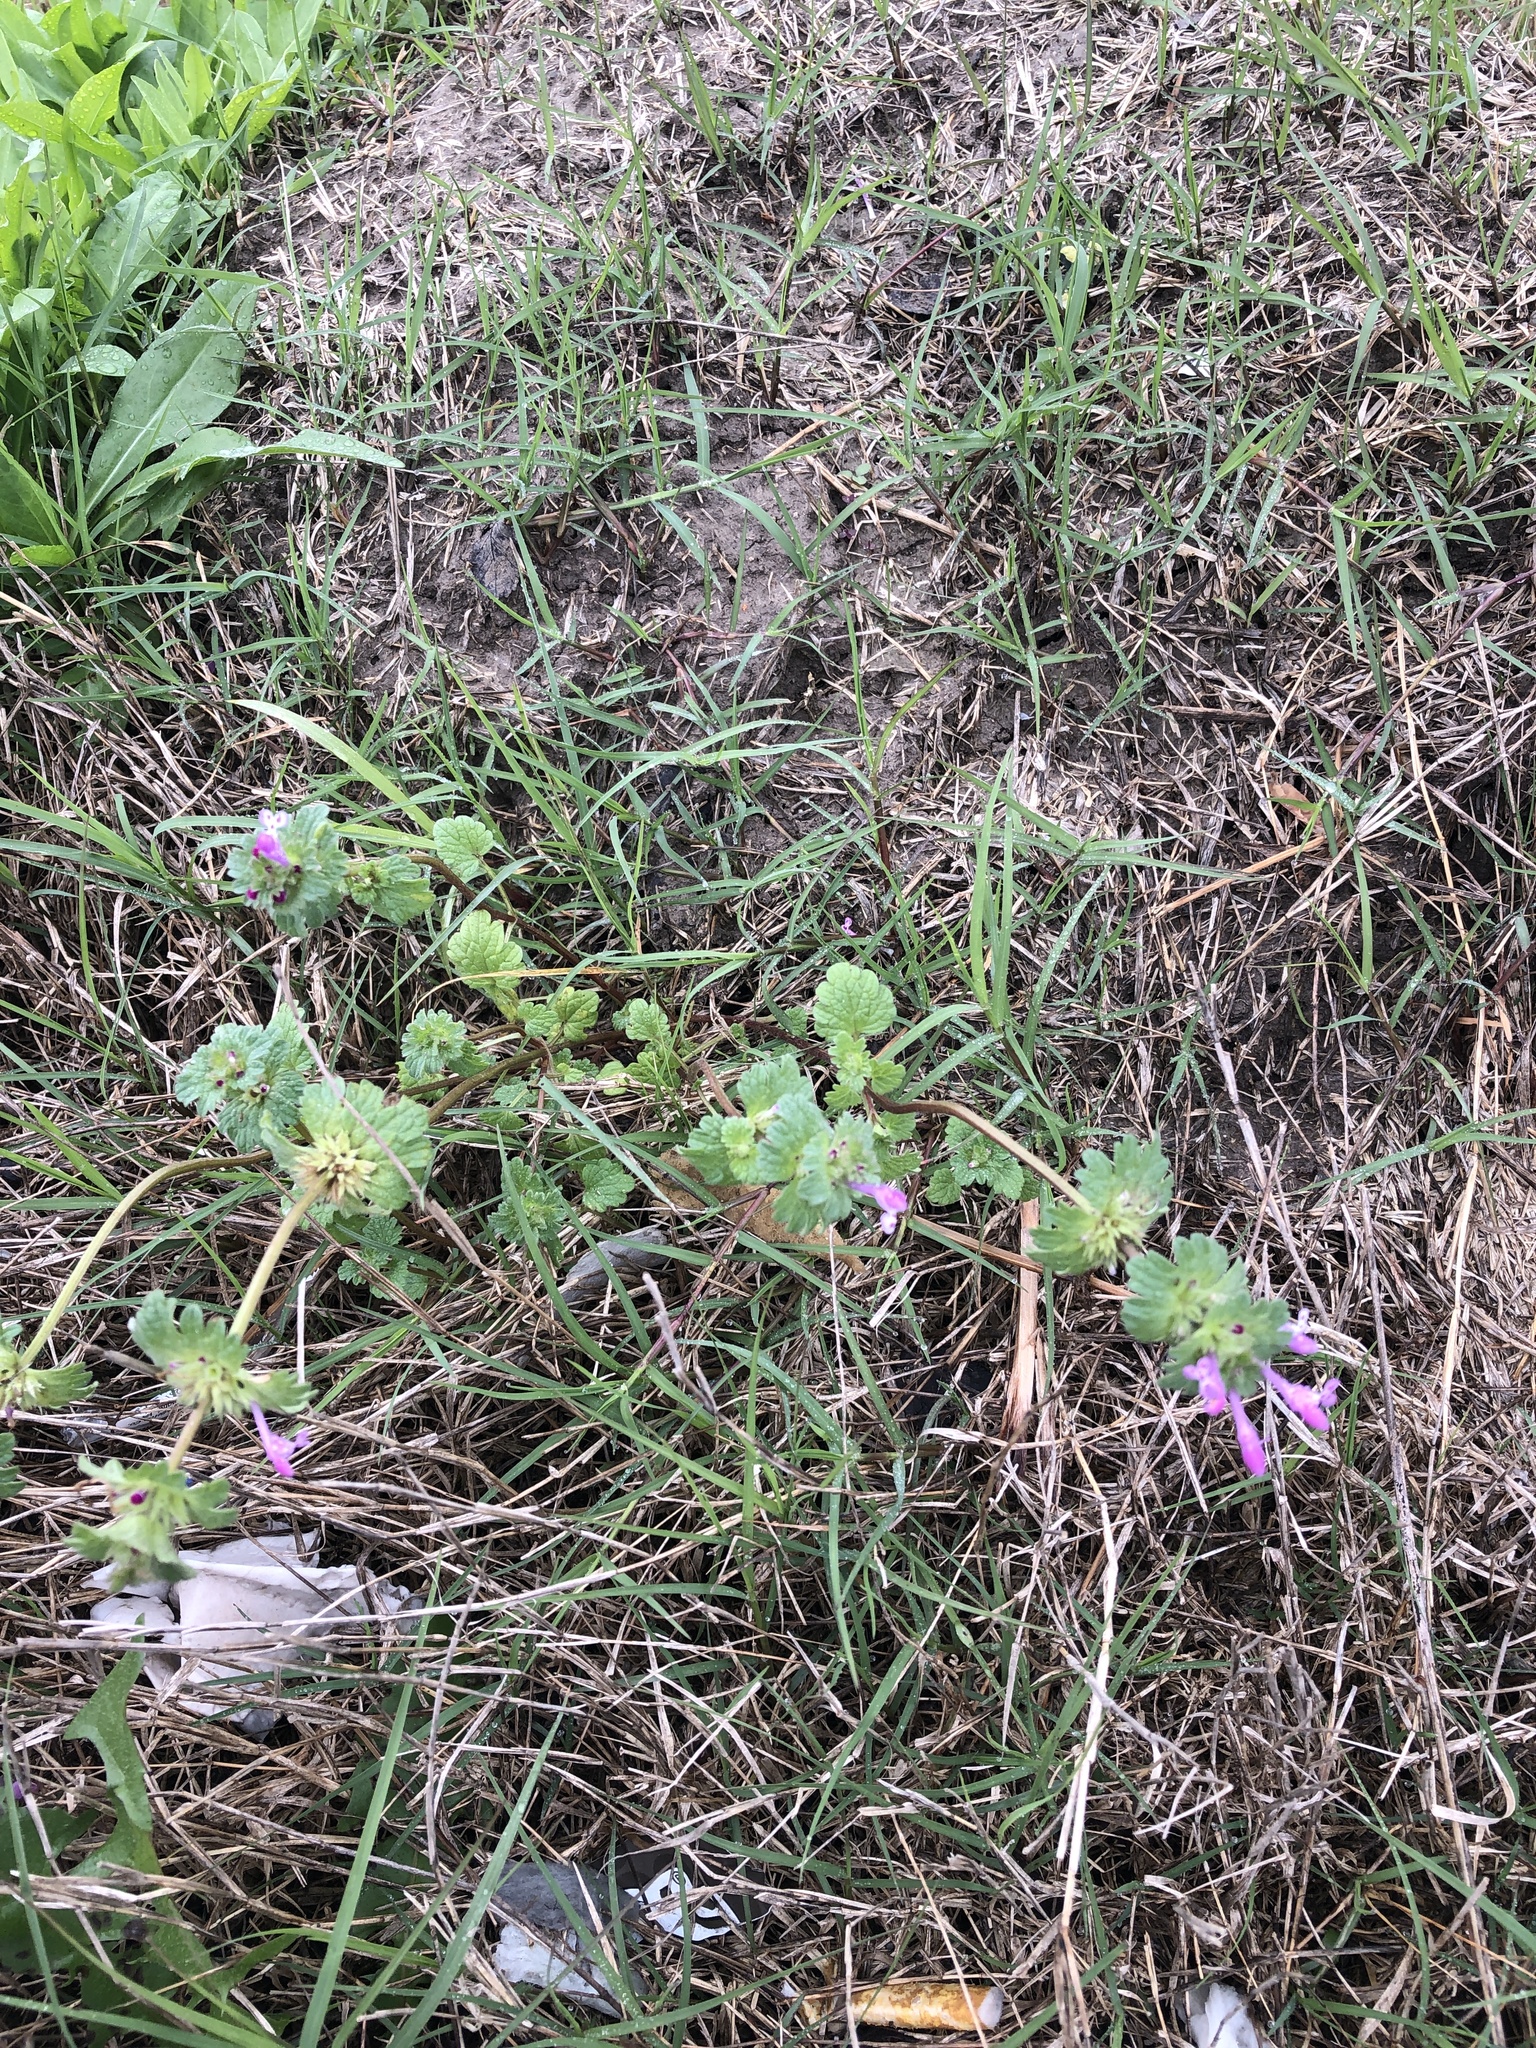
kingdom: Plantae
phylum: Tracheophyta
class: Magnoliopsida
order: Lamiales
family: Lamiaceae
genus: Lamium
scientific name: Lamium amplexicaule
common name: Henbit dead-nettle
